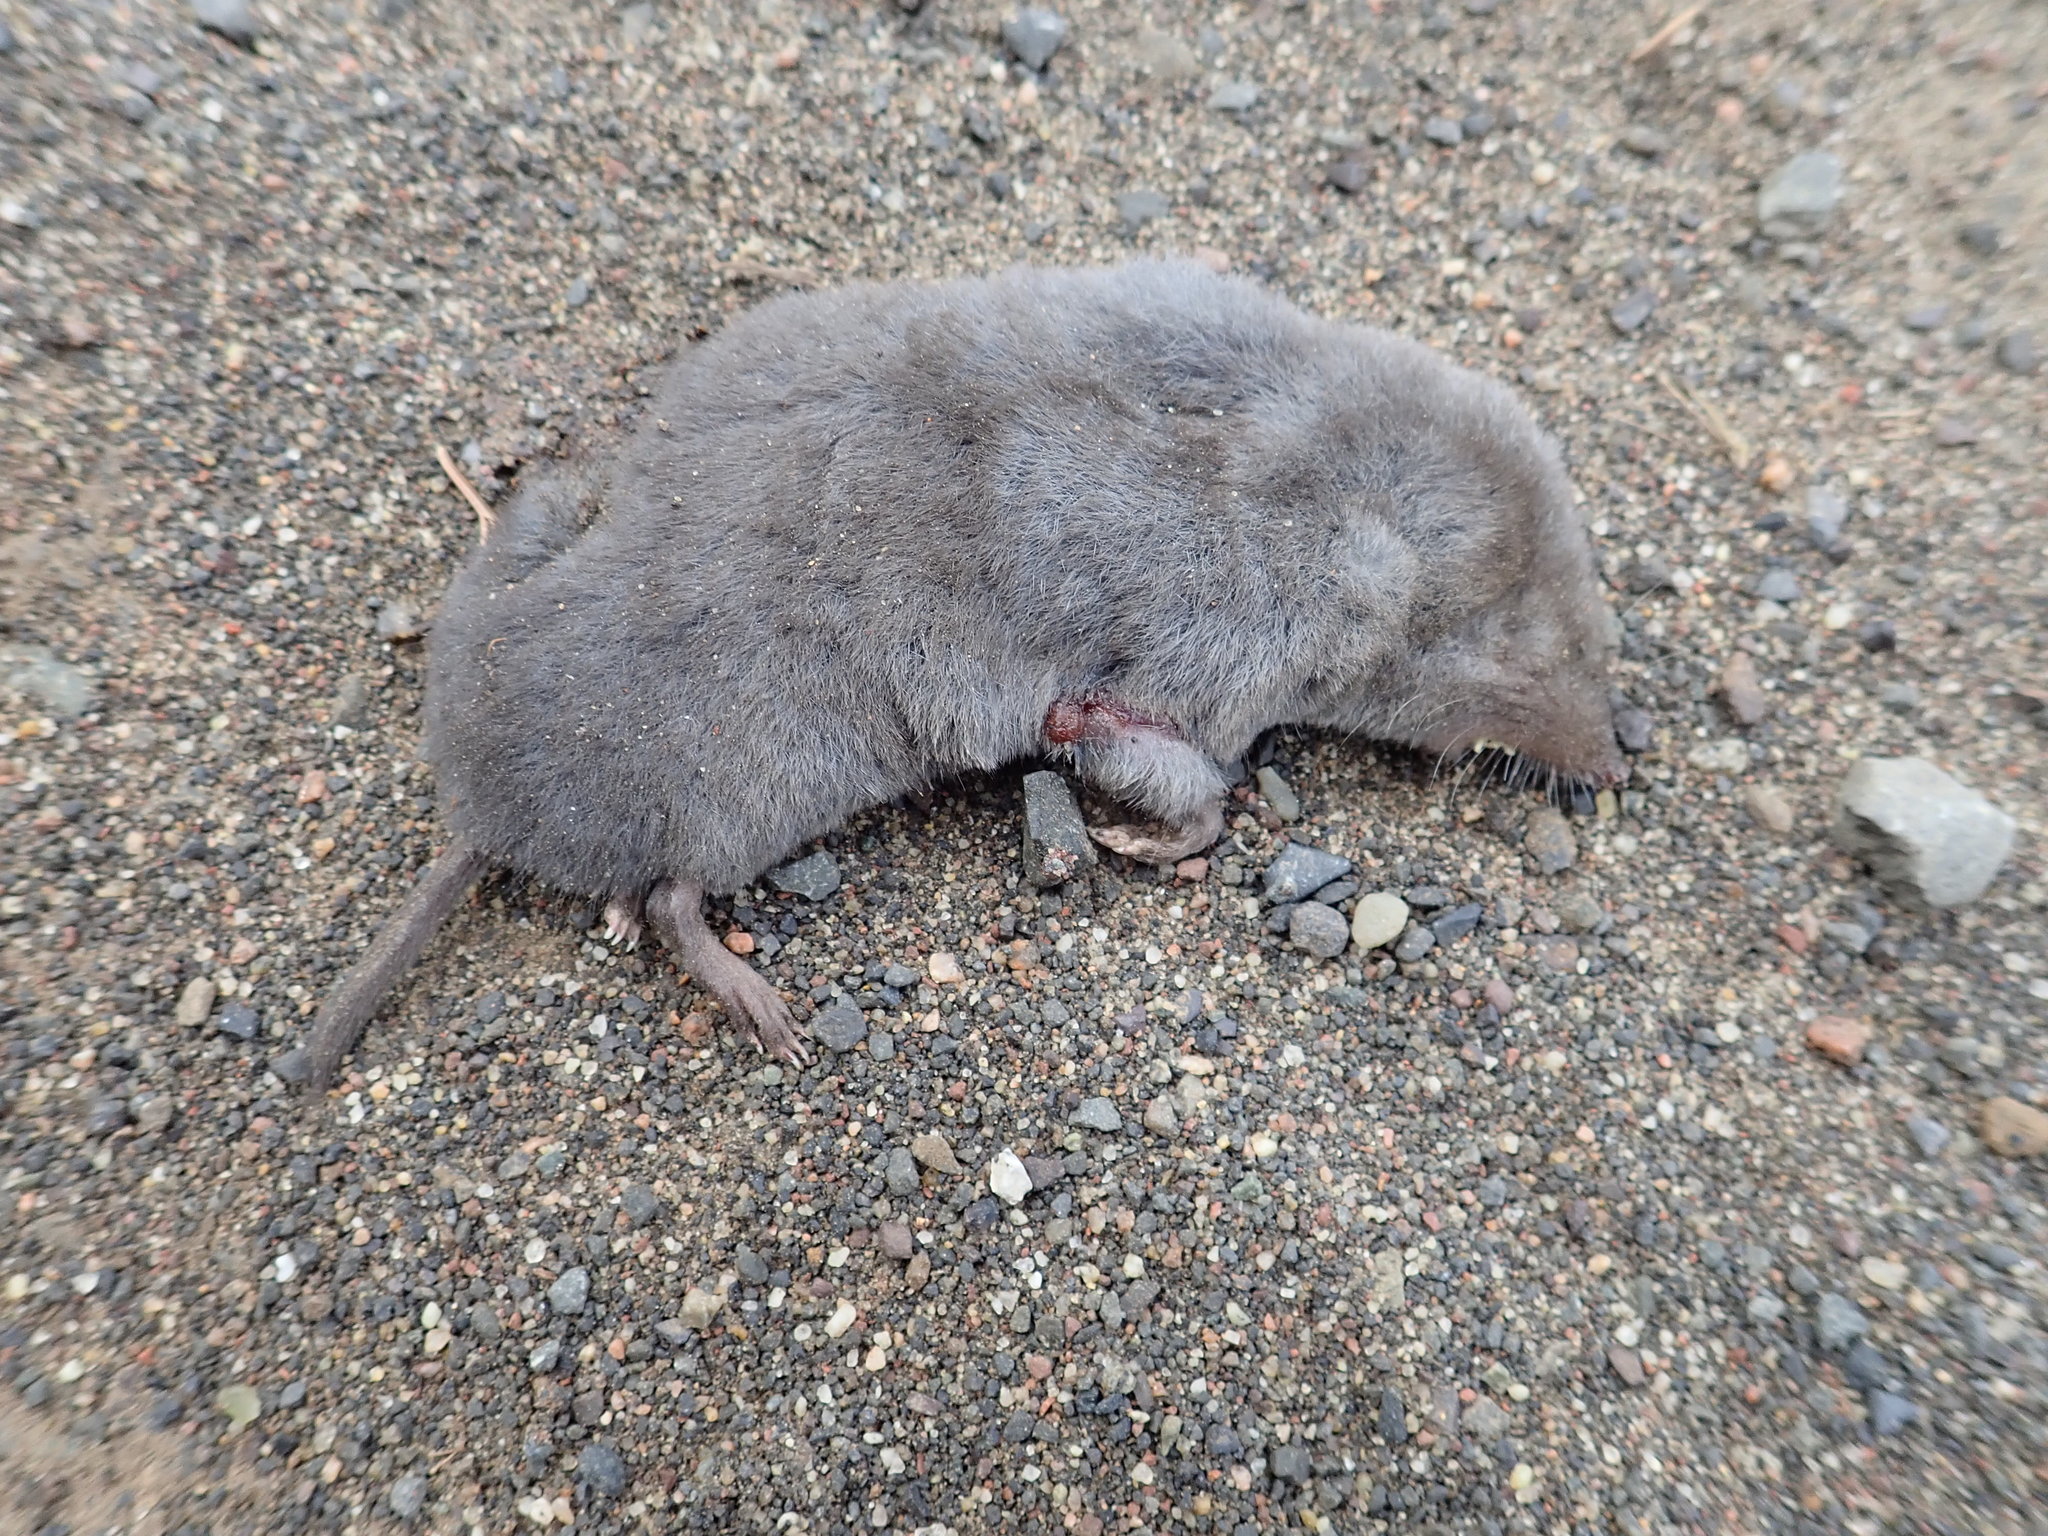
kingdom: Animalia
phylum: Chordata
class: Mammalia
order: Soricomorpha
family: Soricidae
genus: Blarina
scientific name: Blarina brevicauda
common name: Northern short-tailed shrew
